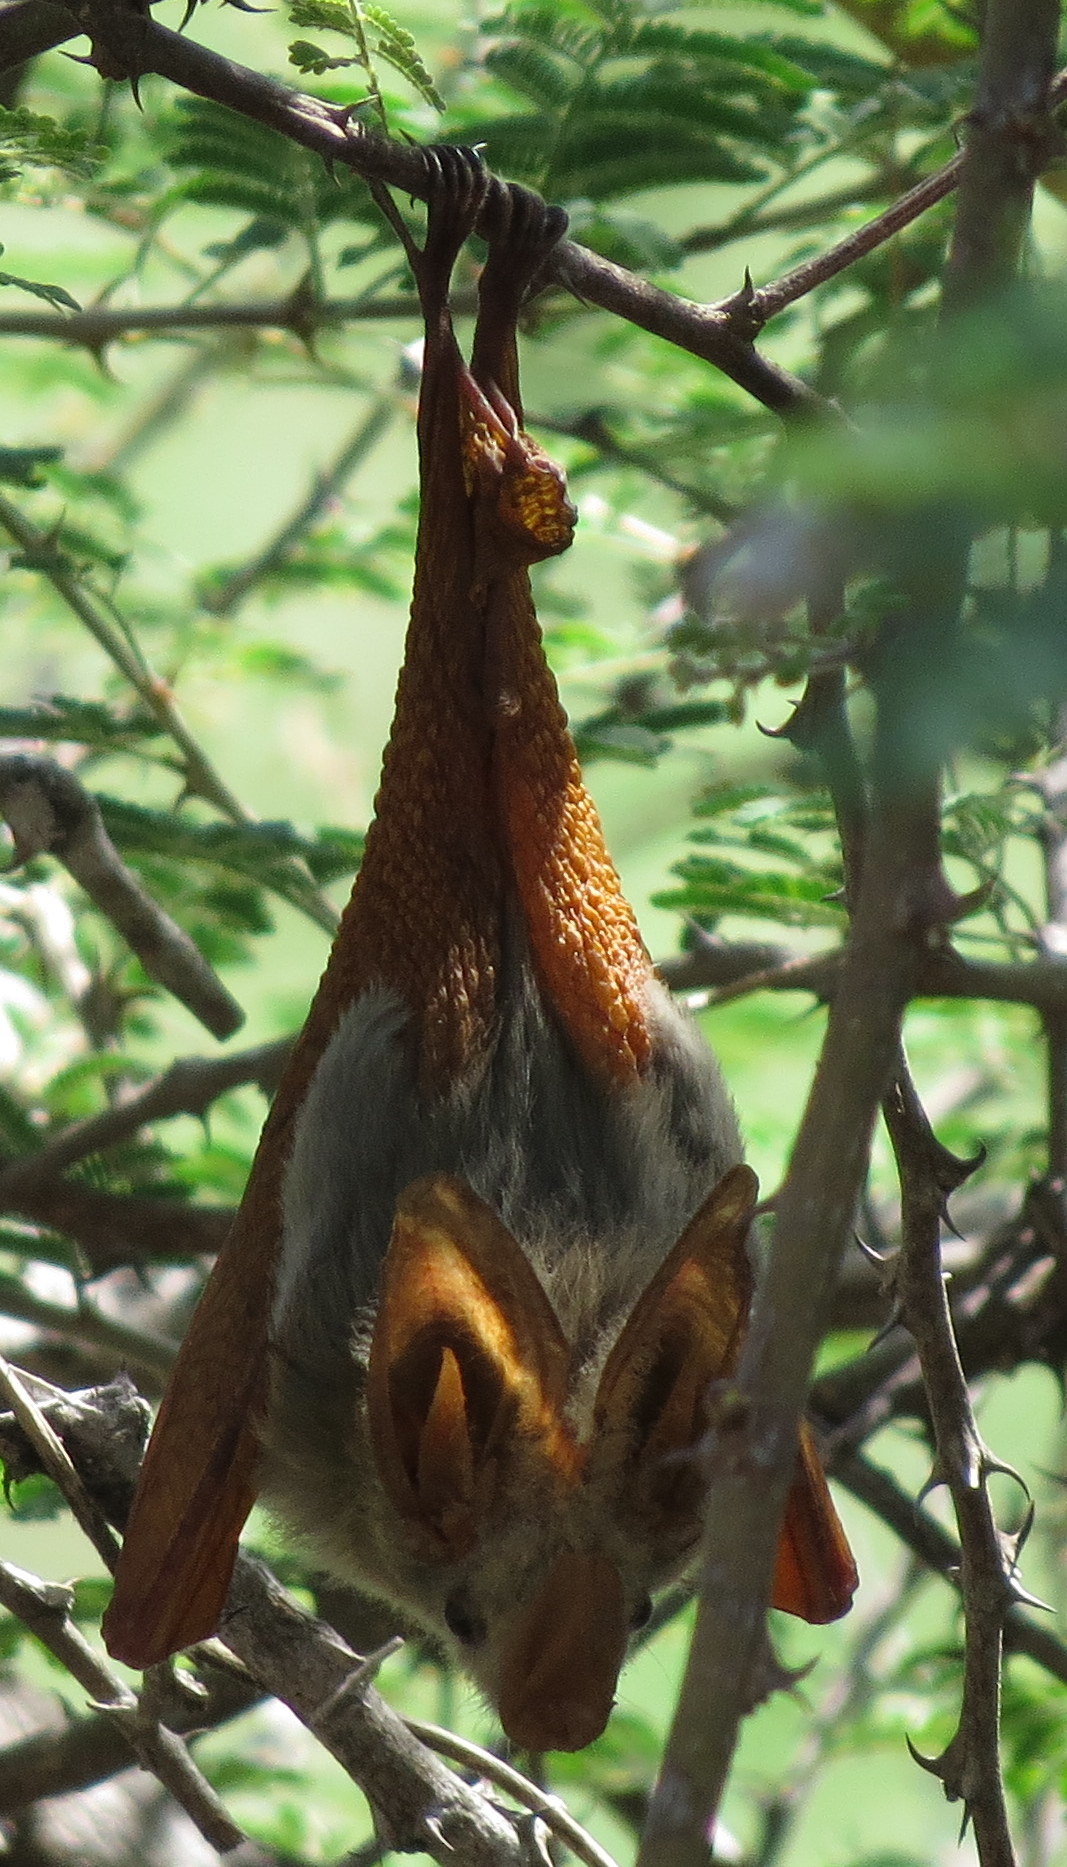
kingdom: Animalia
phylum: Chordata
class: Mammalia
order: Chiroptera
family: Megadermatidae
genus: Lavia
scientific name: Lavia frons
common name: Yellow-winged bat
